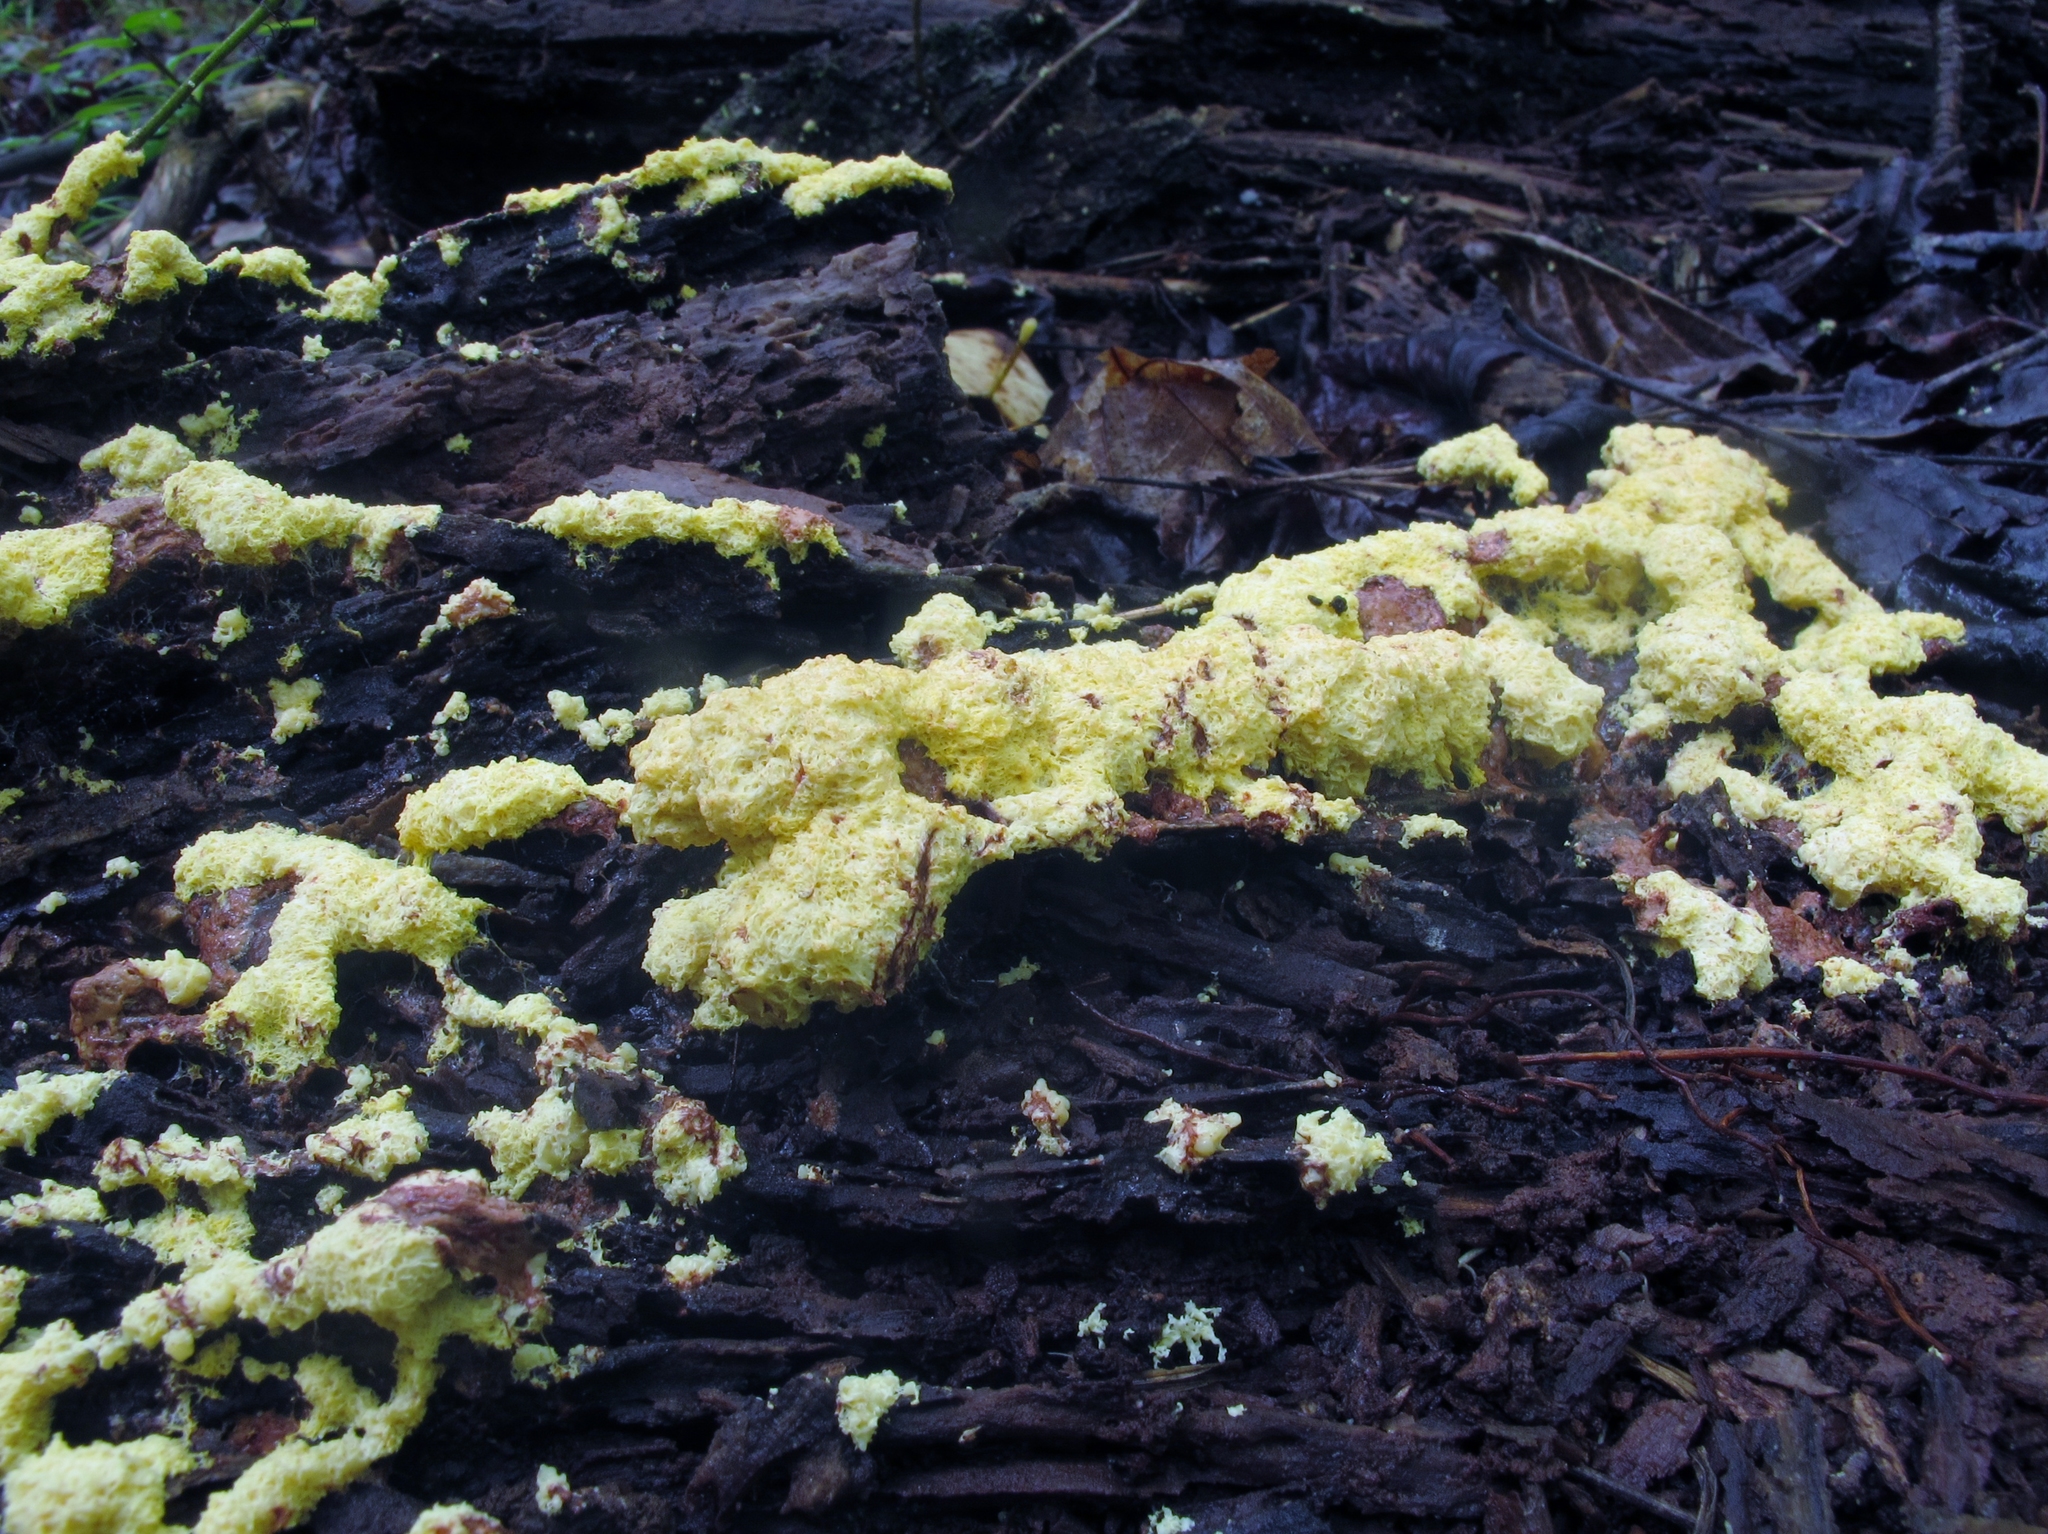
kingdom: Protozoa
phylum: Mycetozoa
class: Myxomycetes
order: Physarales
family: Physaraceae
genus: Fuligo
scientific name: Fuligo septica
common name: Dog vomit slime mold
